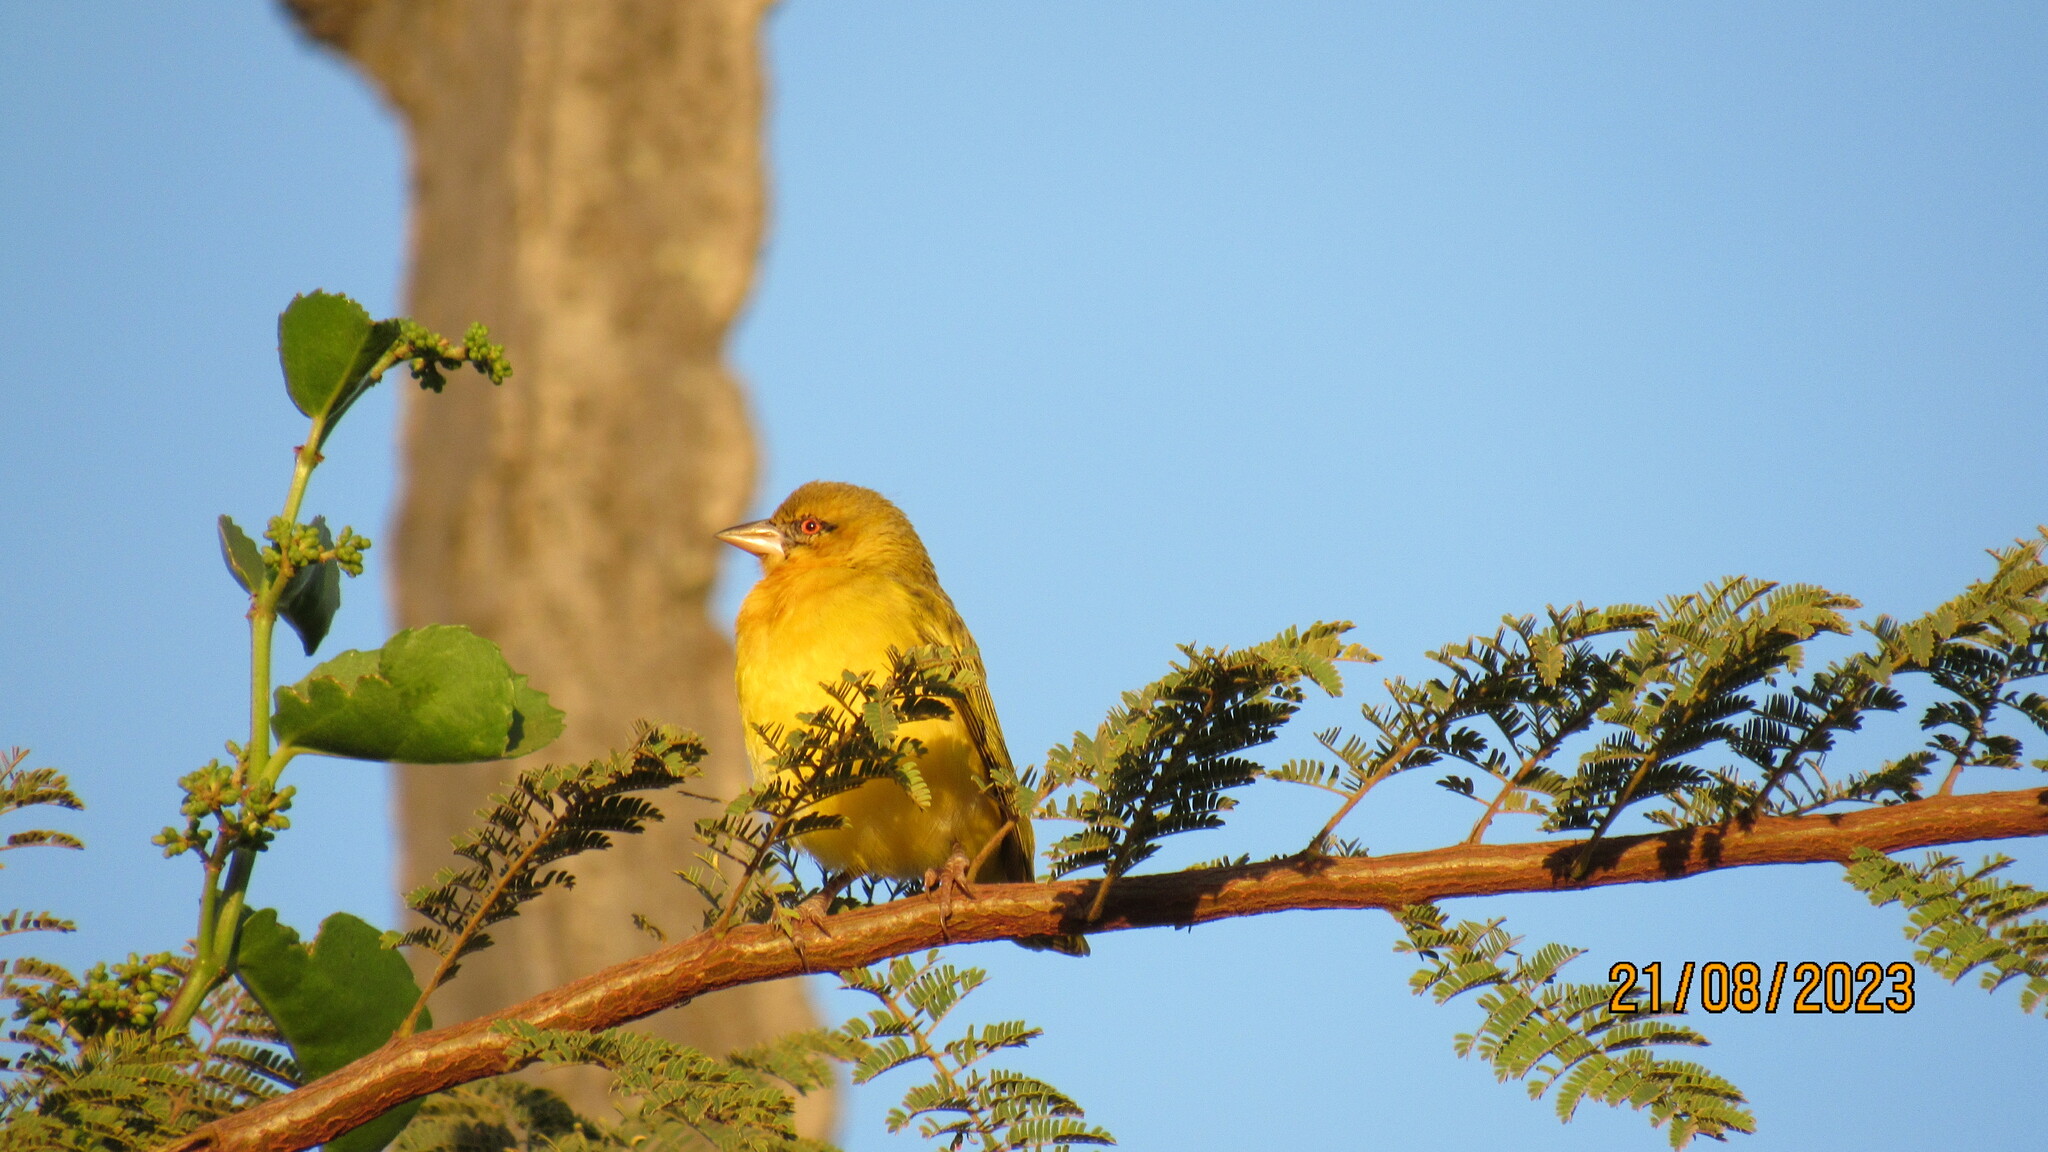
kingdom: Animalia
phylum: Chordata
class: Aves
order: Passeriformes
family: Ploceidae
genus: Ploceus
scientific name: Ploceus cucullatus
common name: Village weaver
